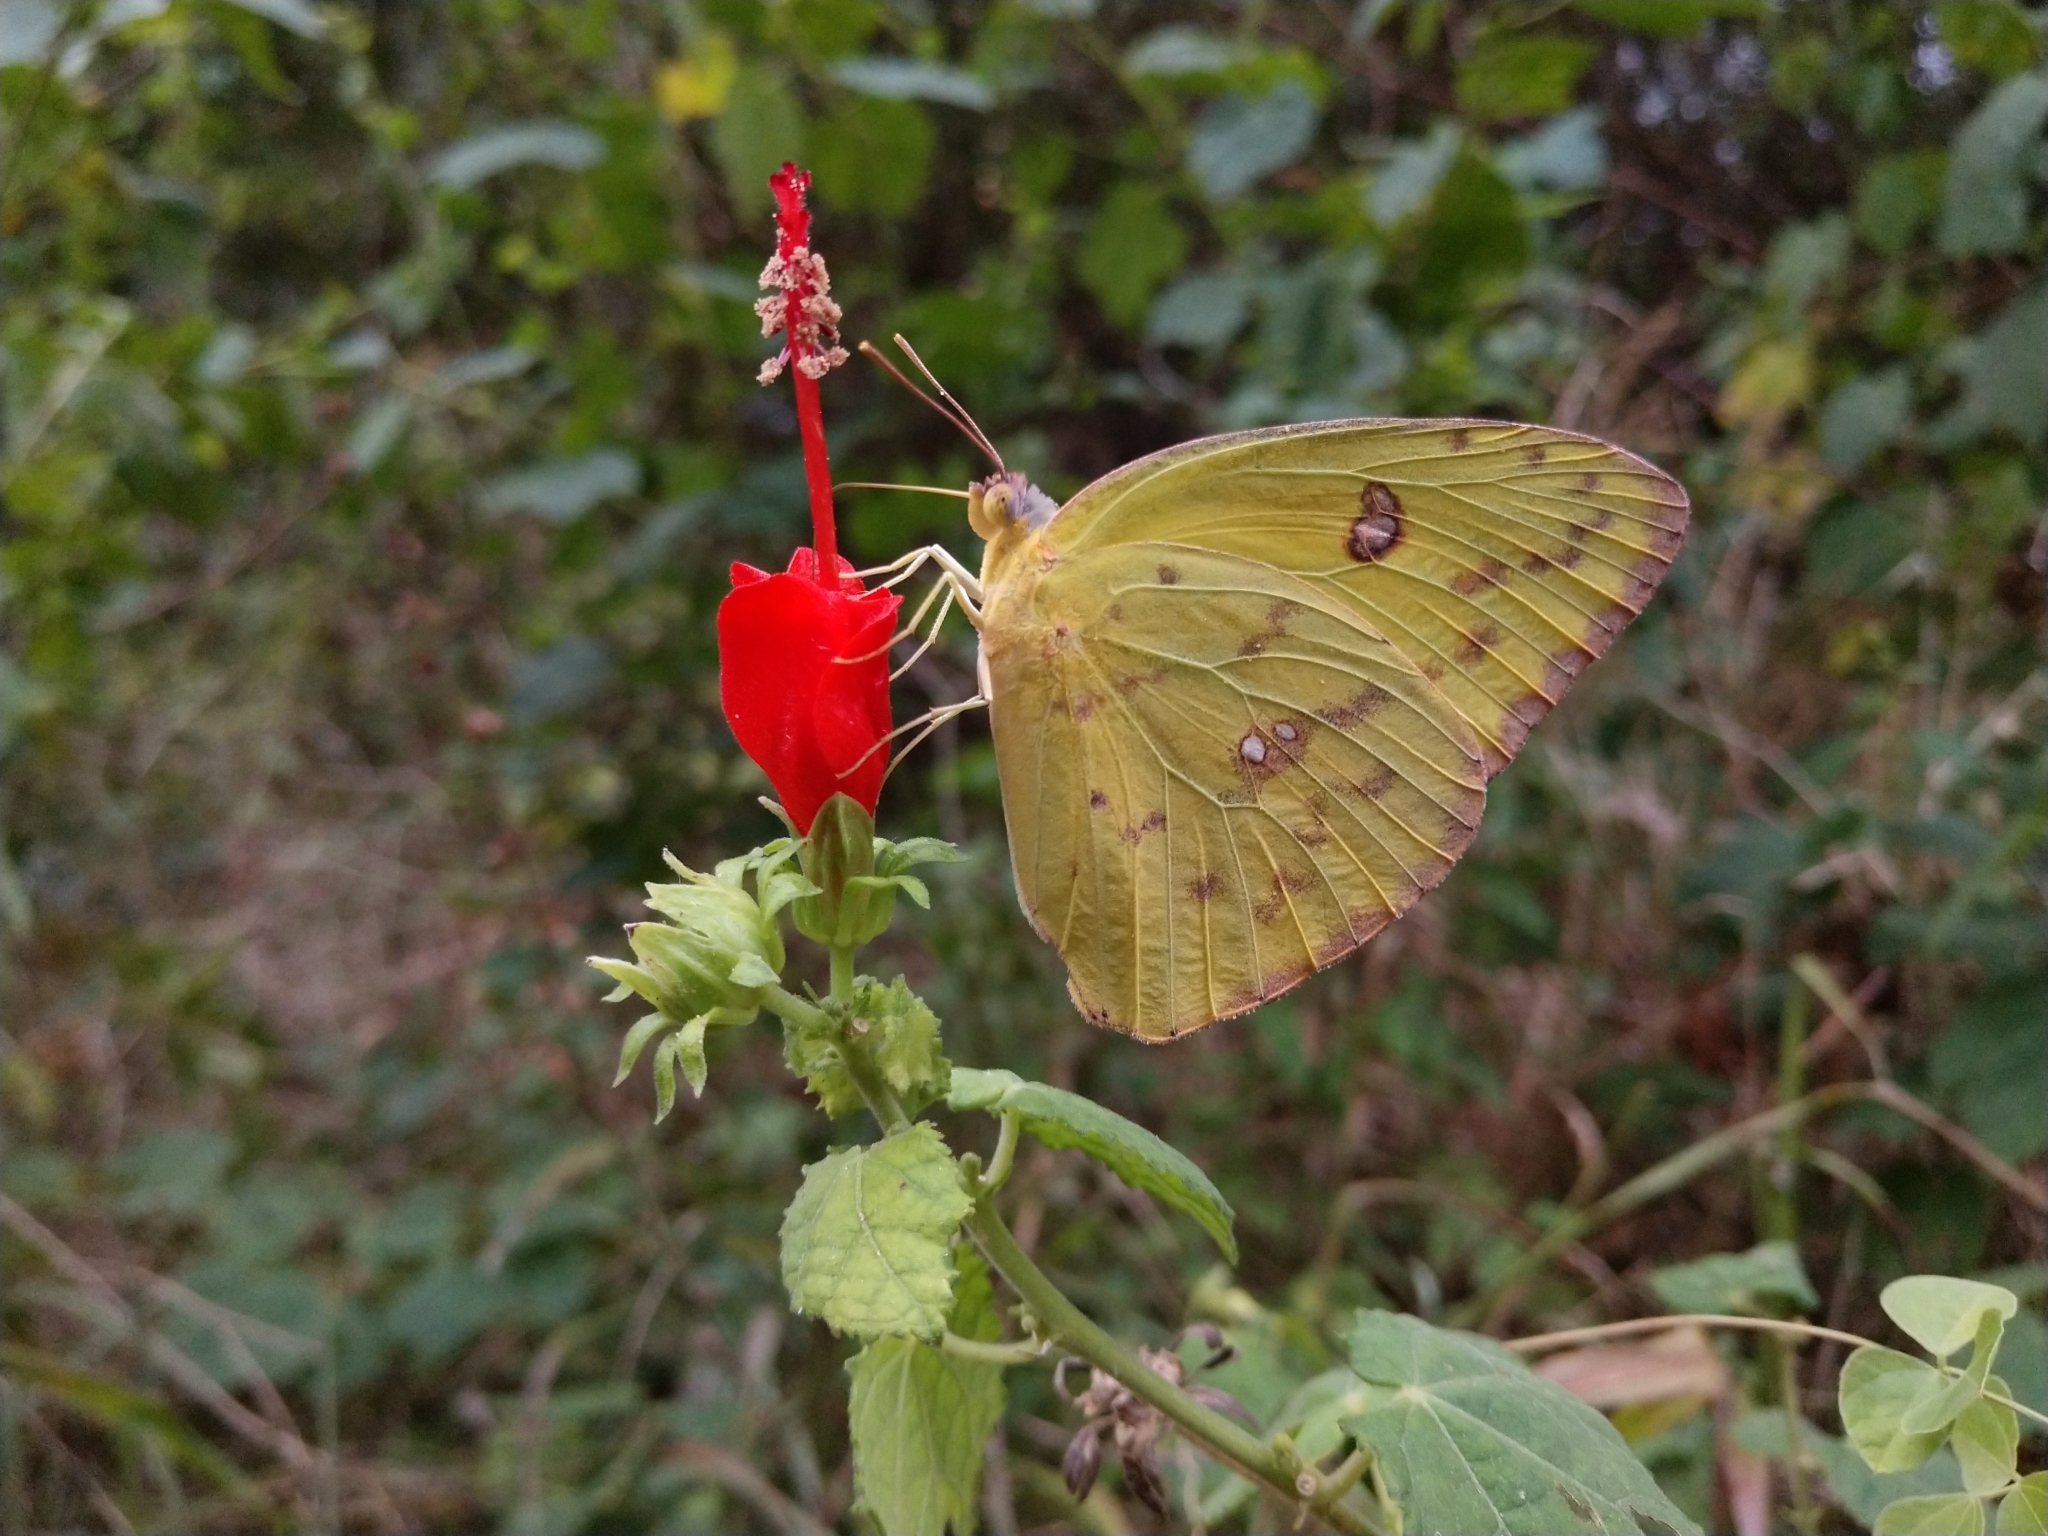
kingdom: Animalia
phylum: Arthropoda
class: Insecta
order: Lepidoptera
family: Pieridae
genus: Phoebis
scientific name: Phoebis sennae
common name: Cloudless sulphur
